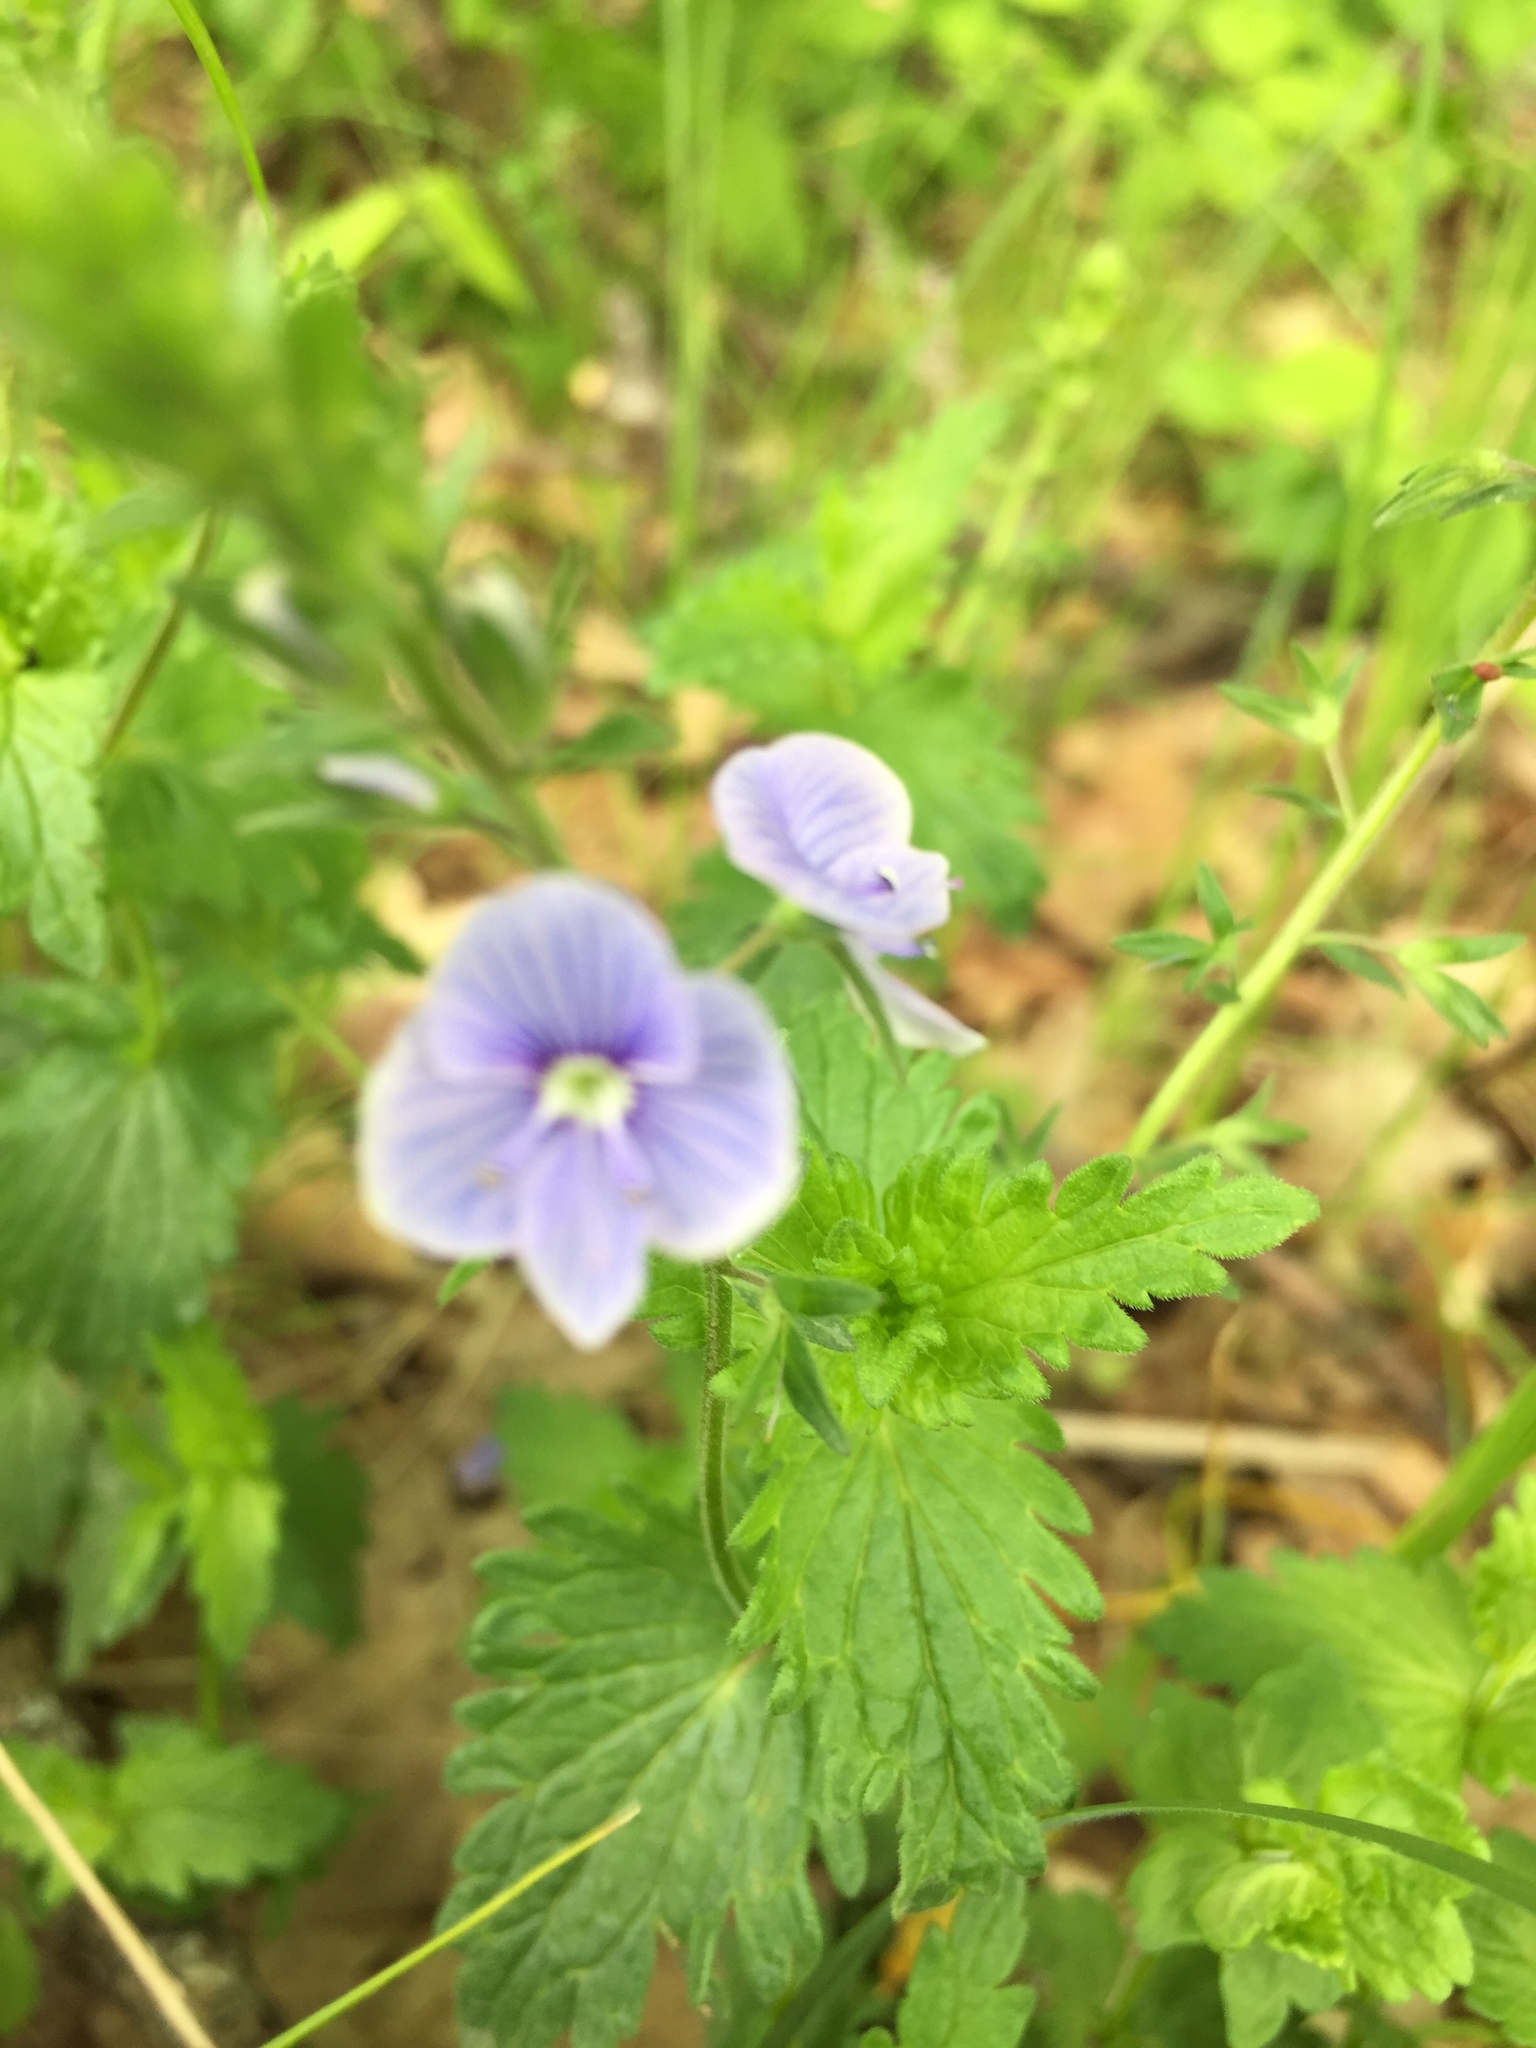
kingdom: Plantae
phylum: Tracheophyta
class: Magnoliopsida
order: Lamiales
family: Plantaginaceae
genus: Veronica
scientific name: Veronica chamaedrys
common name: Germander speedwell
